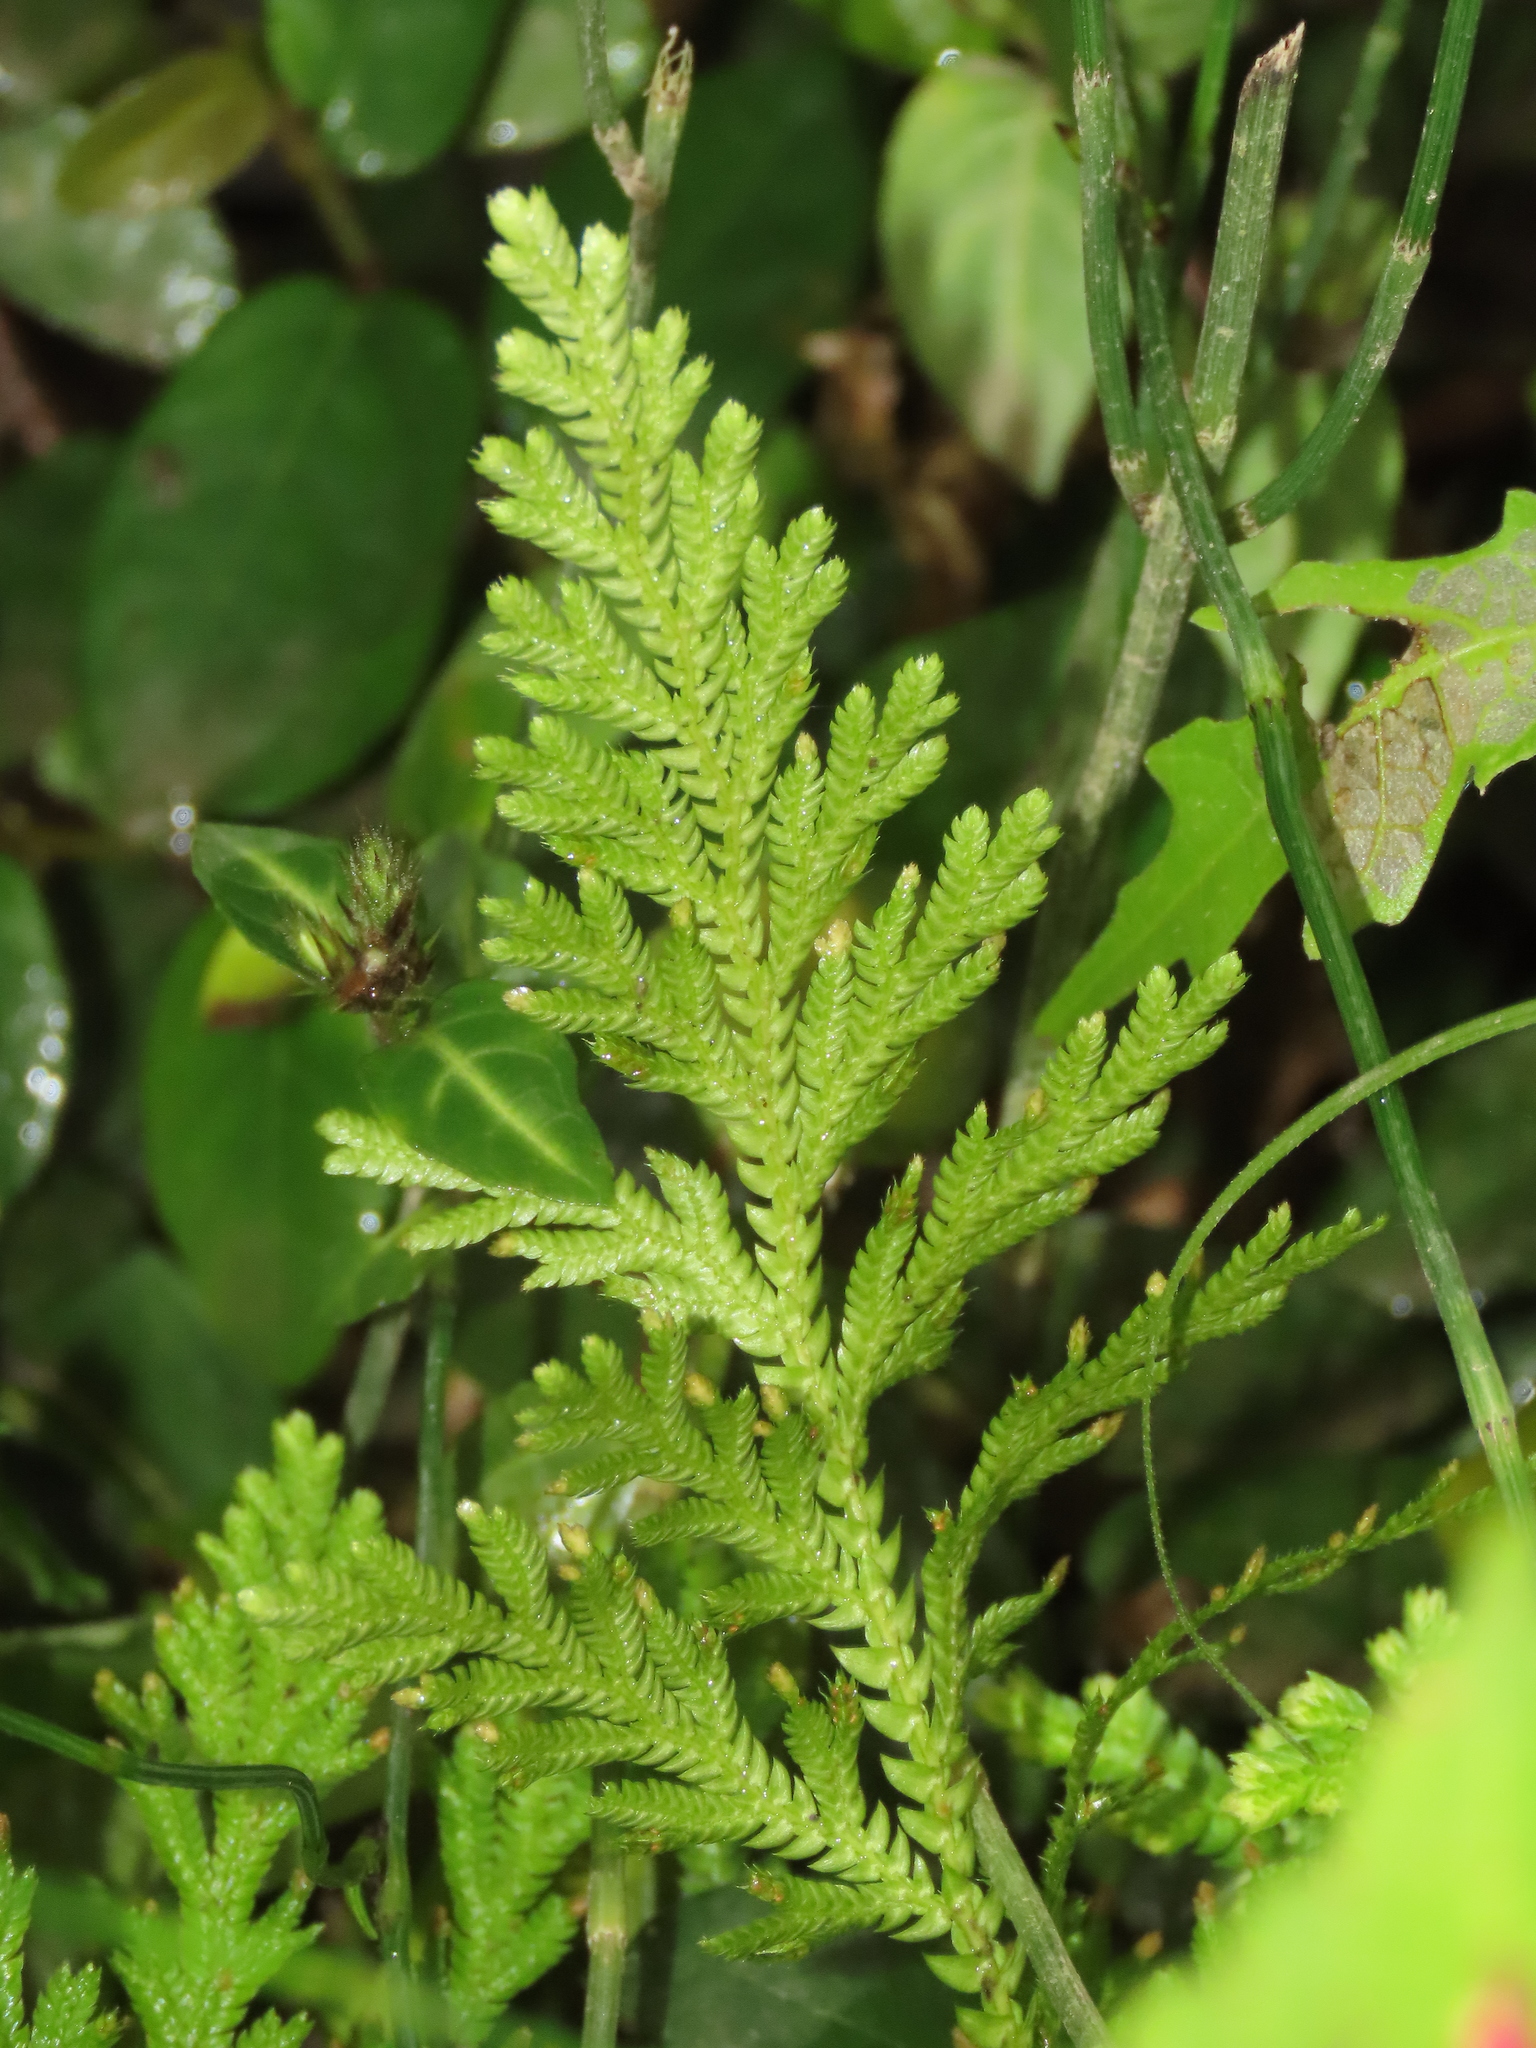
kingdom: Plantae
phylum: Tracheophyta
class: Lycopodiopsida
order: Selaginellales
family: Selaginellaceae
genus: Selaginella
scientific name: Selaginella moellendorffii
